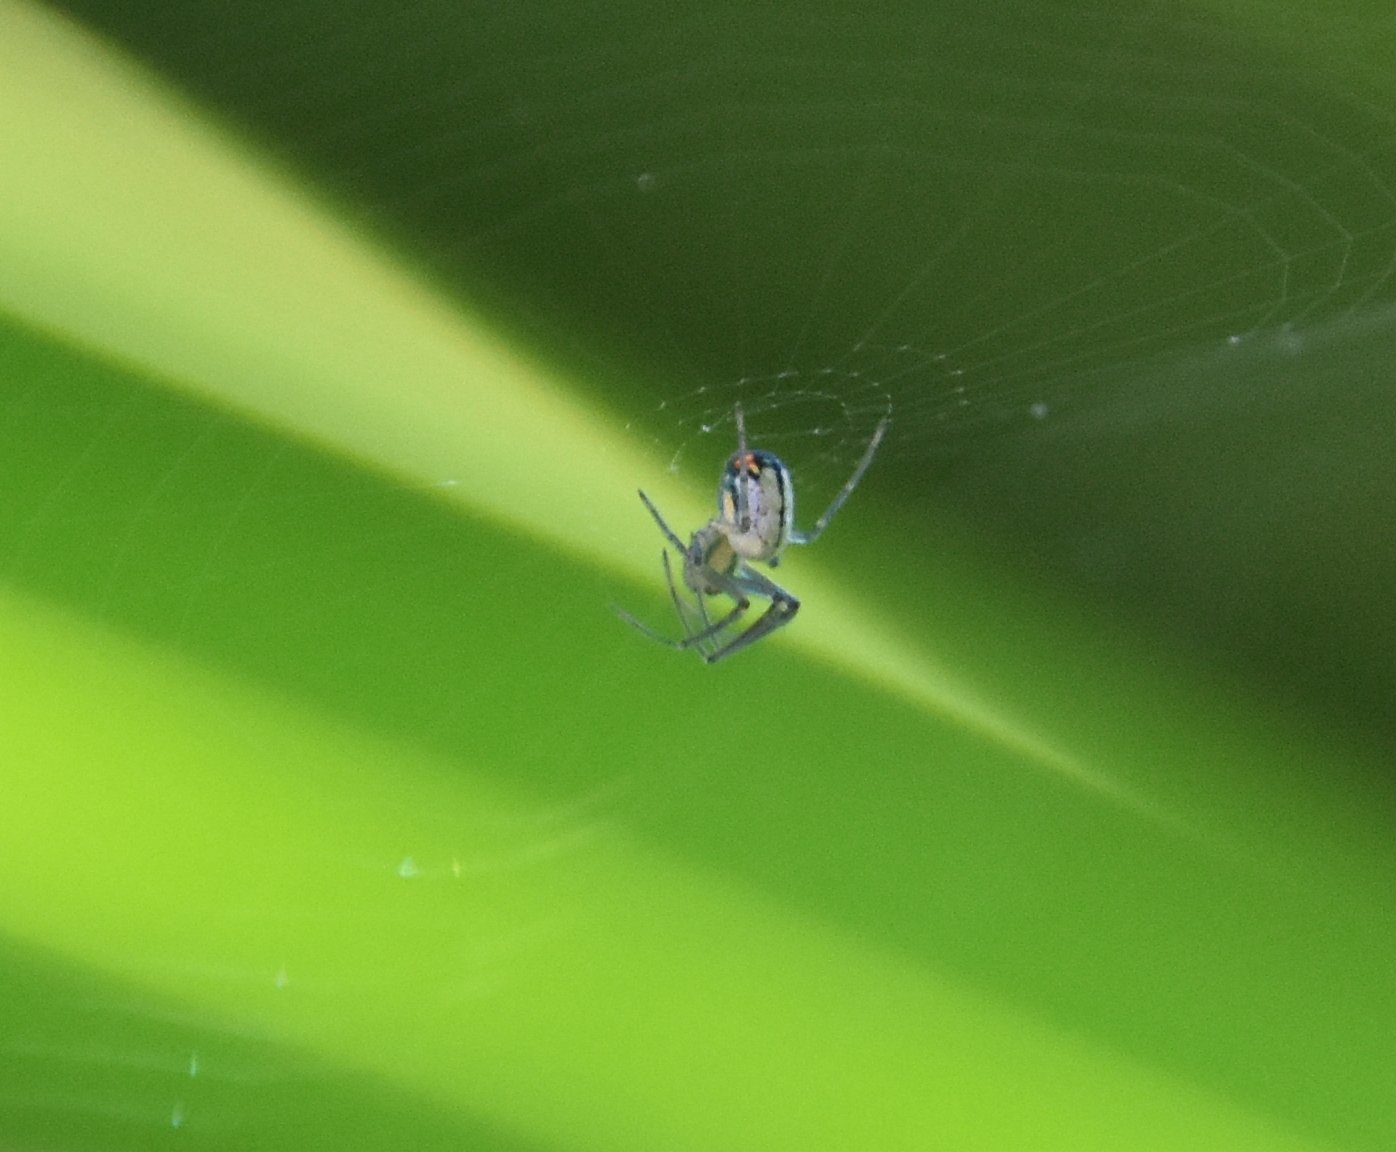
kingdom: Animalia
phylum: Arthropoda
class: Arachnida
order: Araneae
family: Tetragnathidae
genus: Leucauge
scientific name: Leucauge argyrobapta
